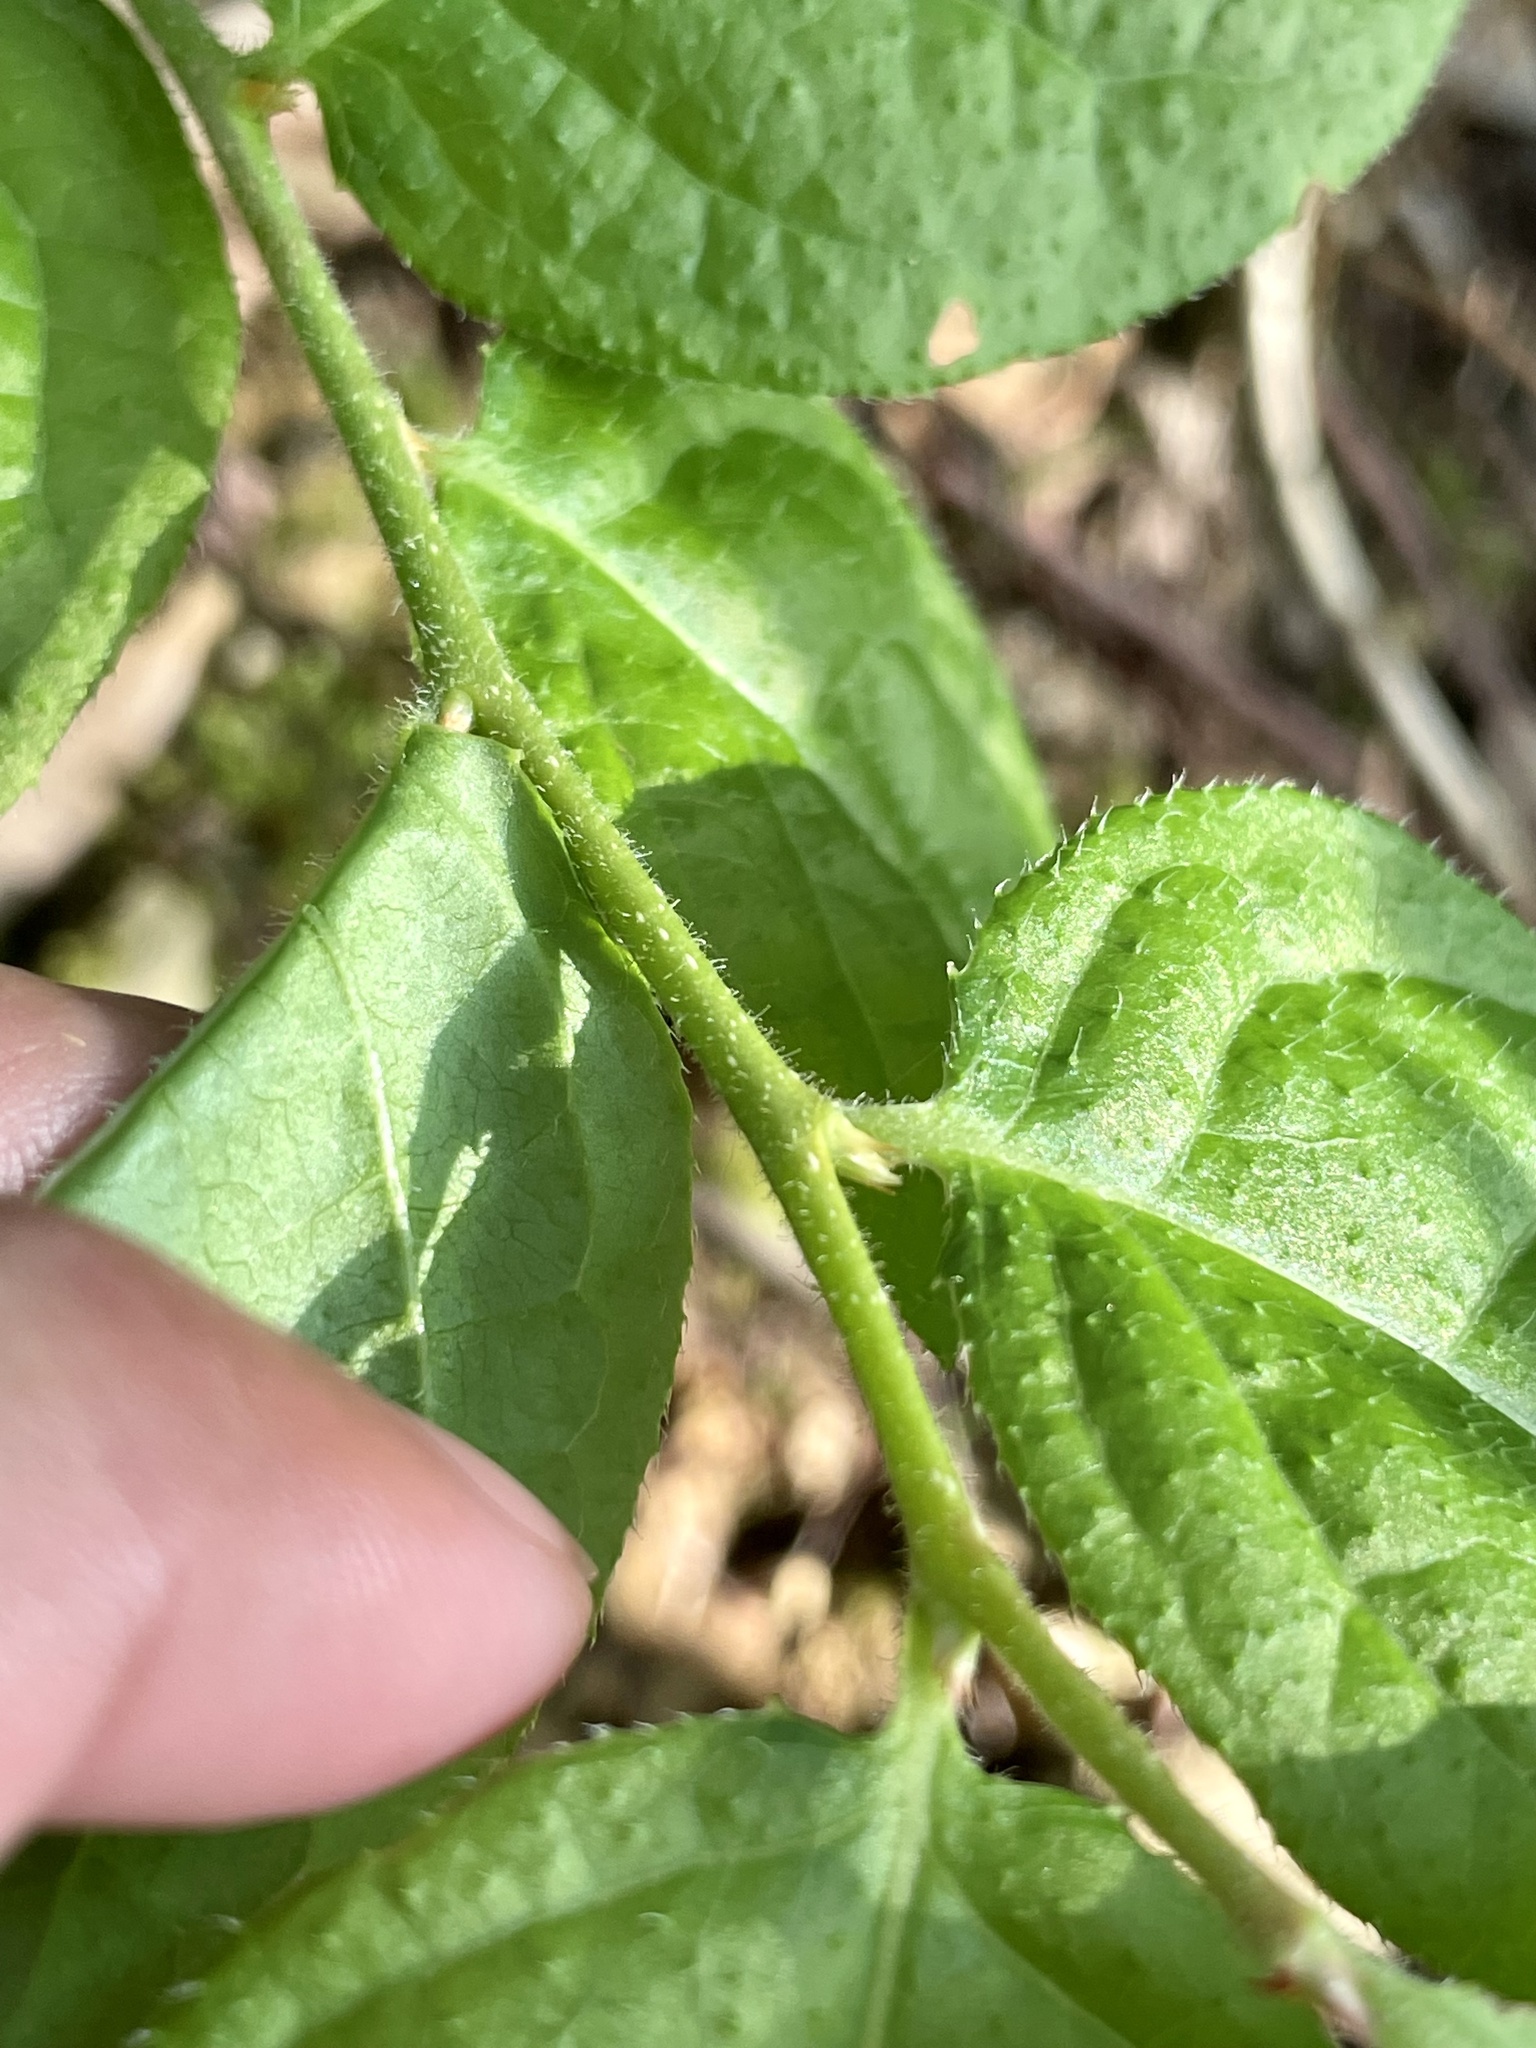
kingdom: Plantae
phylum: Tracheophyta
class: Magnoliopsida
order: Ericales
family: Ericaceae
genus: Vaccinium
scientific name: Vaccinium oldhamii
